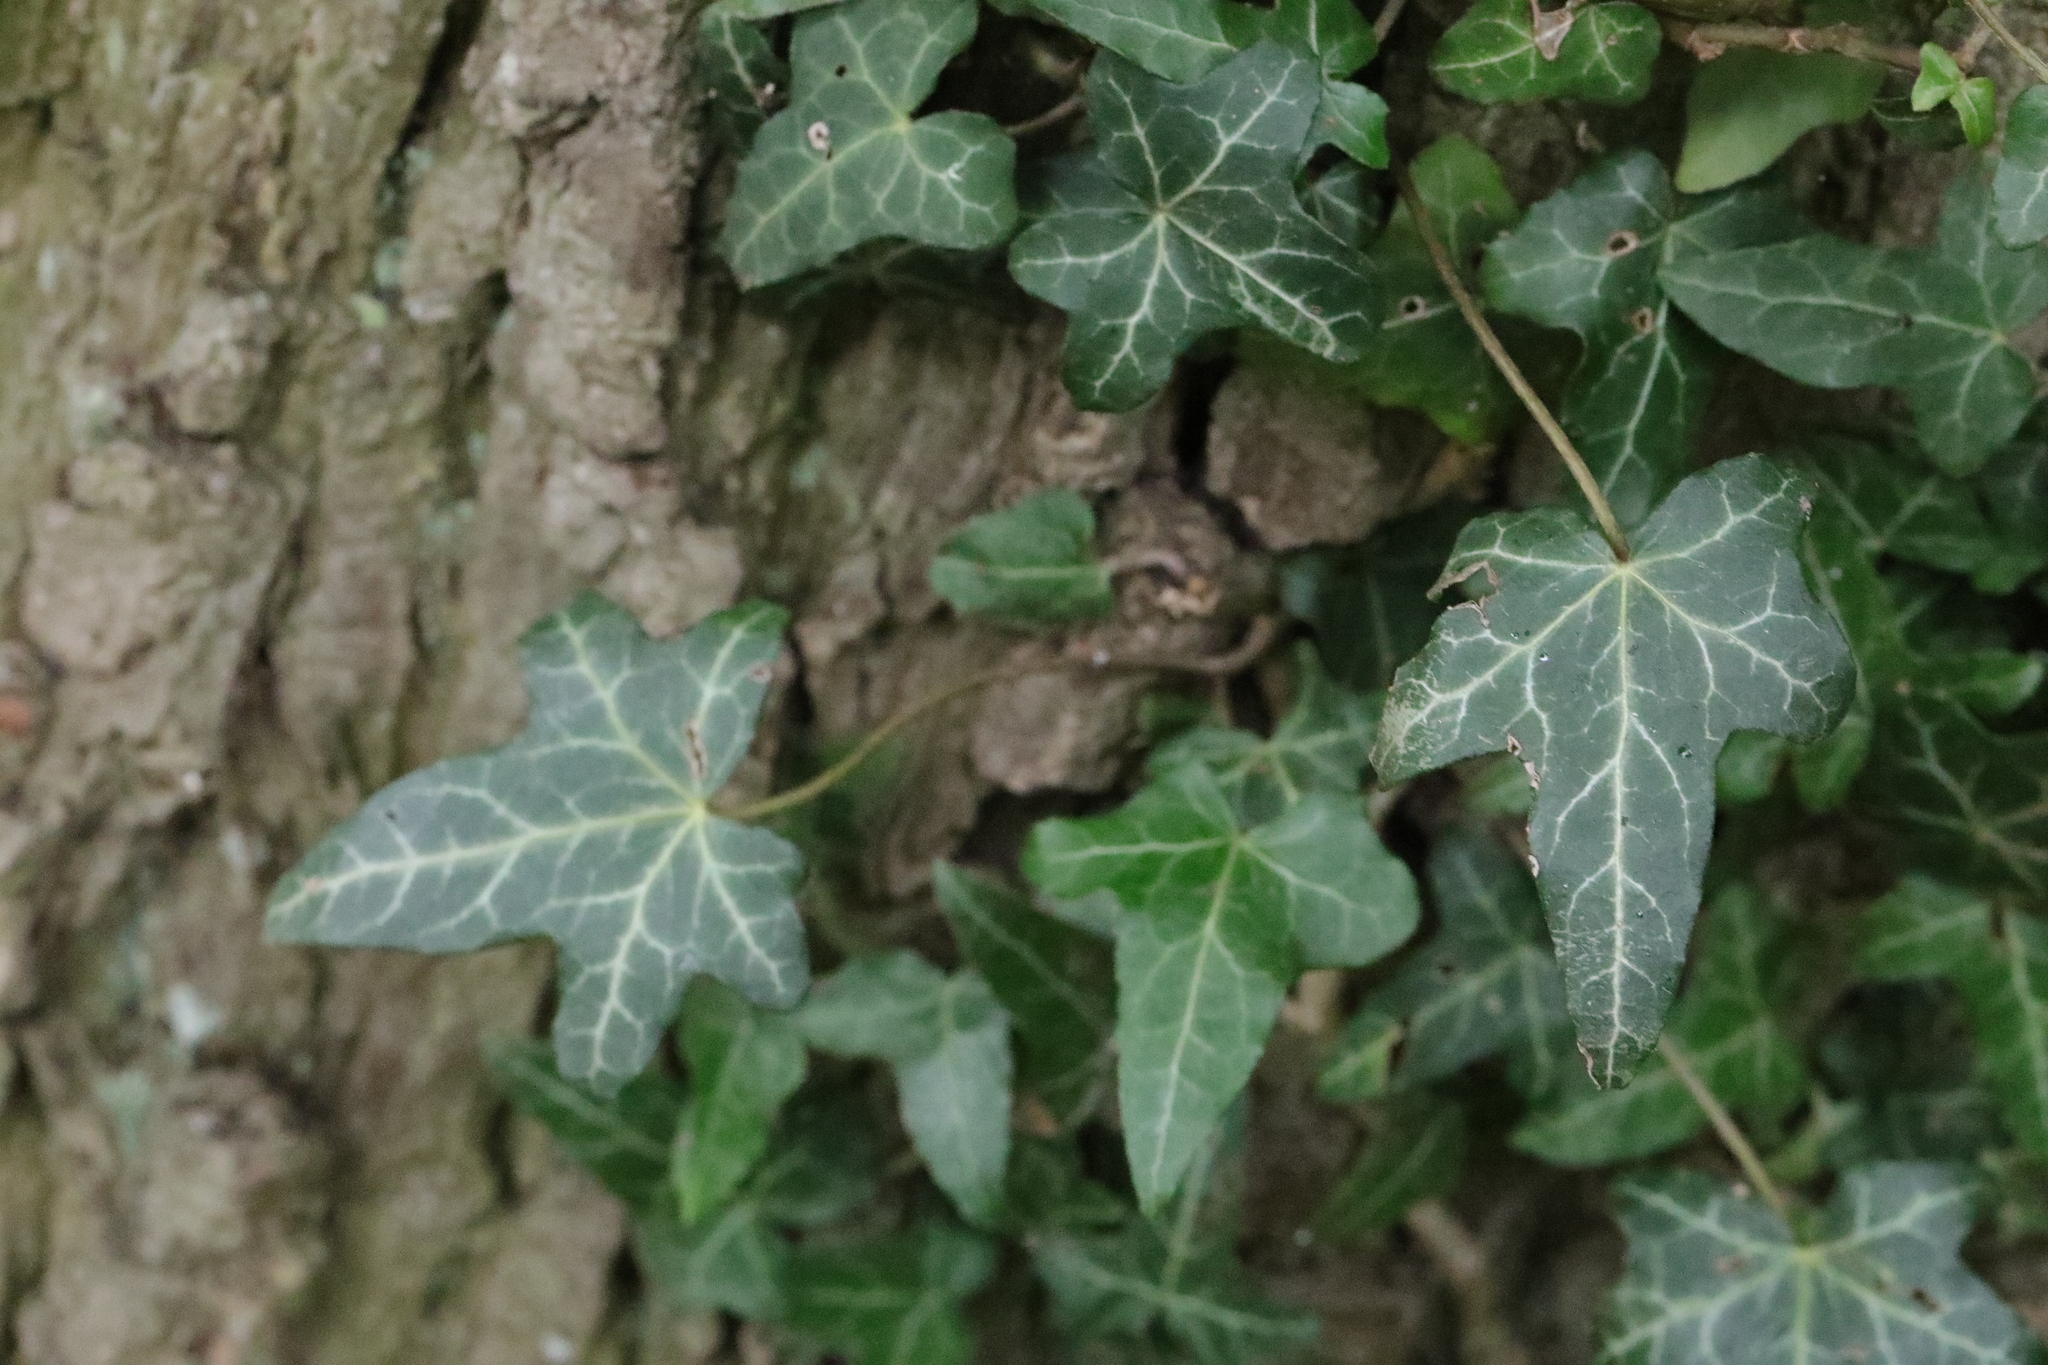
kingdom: Plantae
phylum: Tracheophyta
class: Magnoliopsida
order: Apiales
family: Araliaceae
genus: Hedera
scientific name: Hedera helix
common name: Ivy
